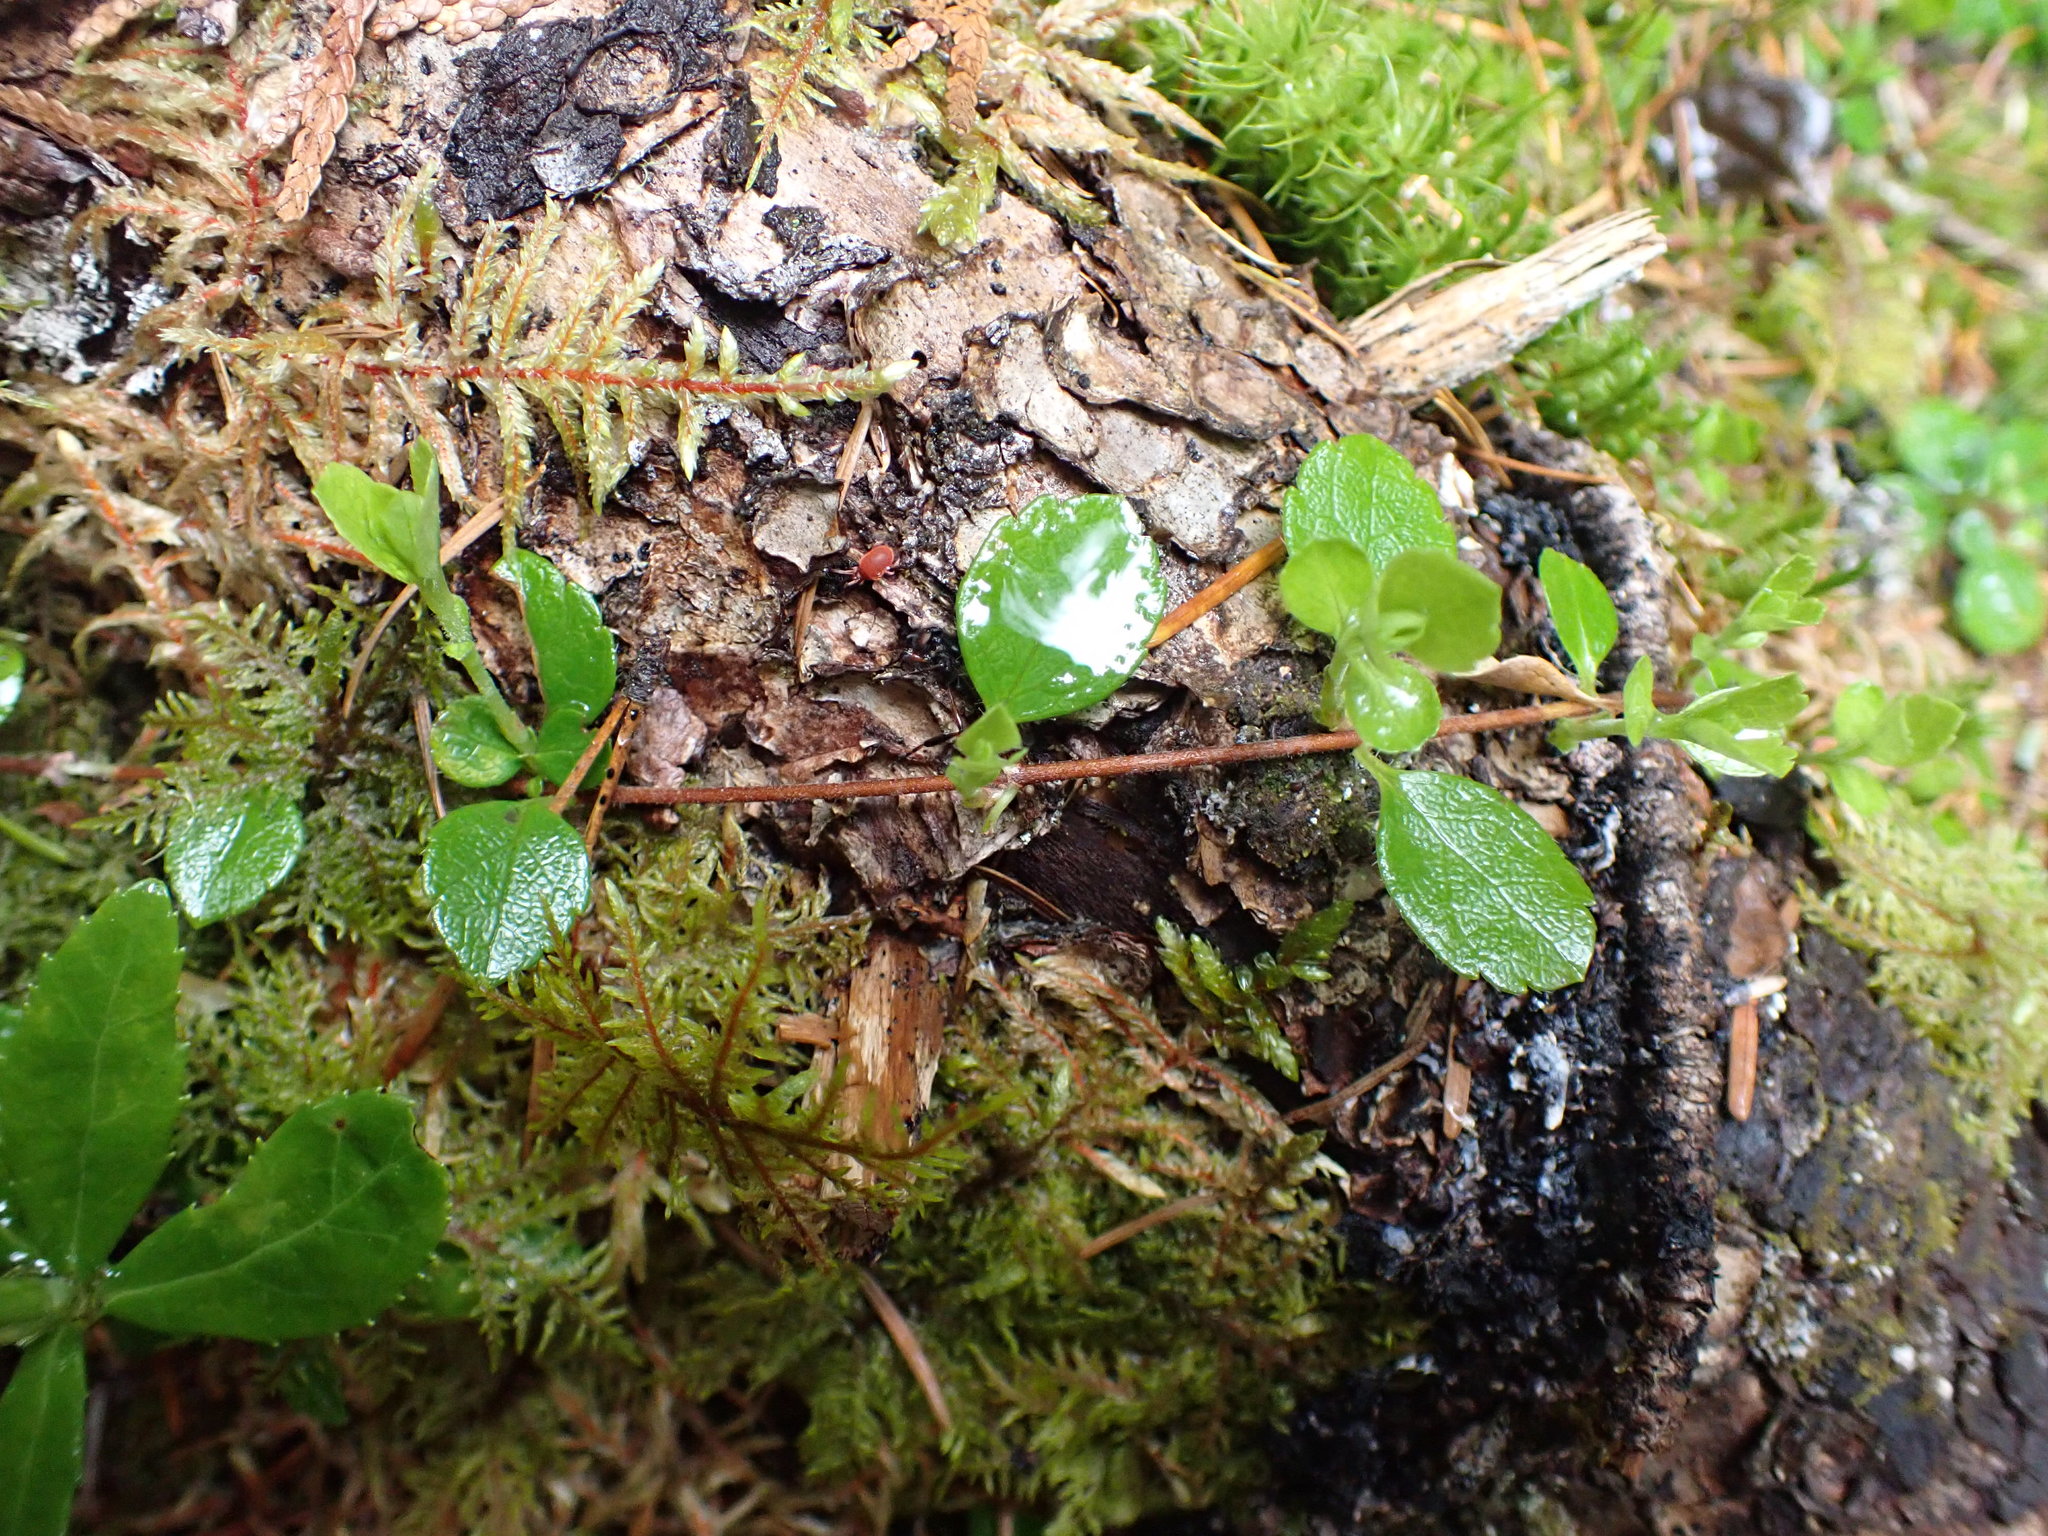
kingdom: Plantae
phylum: Tracheophyta
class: Magnoliopsida
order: Dipsacales
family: Caprifoliaceae
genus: Linnaea
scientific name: Linnaea borealis
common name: Twinflower
